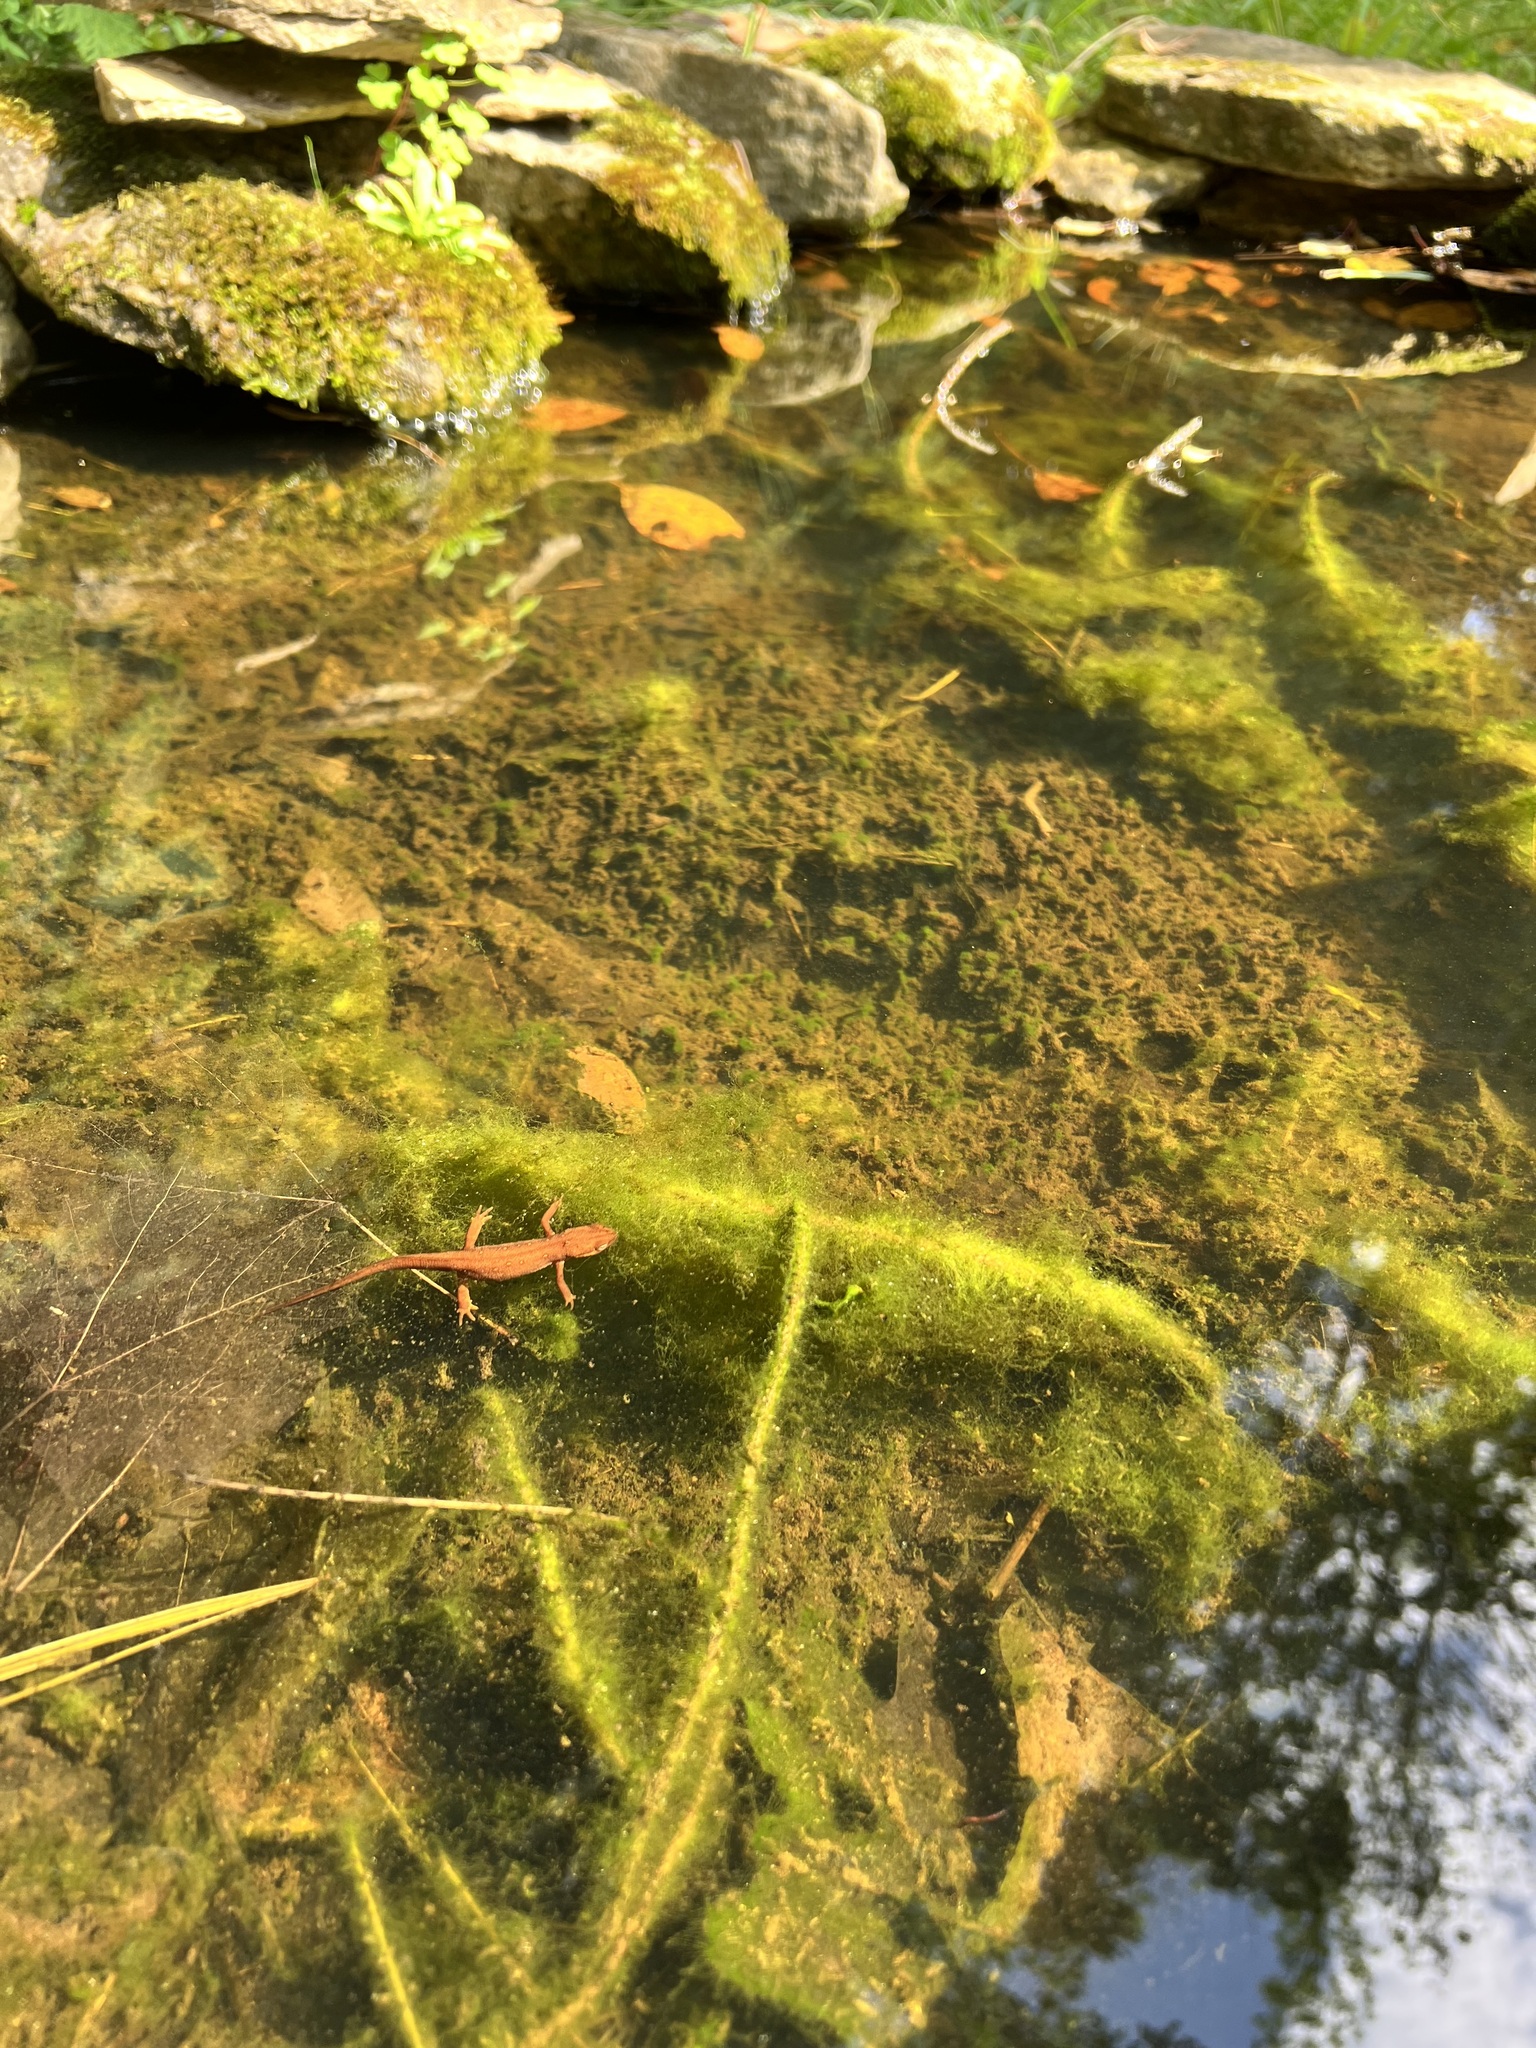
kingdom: Animalia
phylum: Chordata
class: Amphibia
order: Caudata
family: Salamandridae
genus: Notophthalmus
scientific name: Notophthalmus viridescens
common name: Eastern newt
